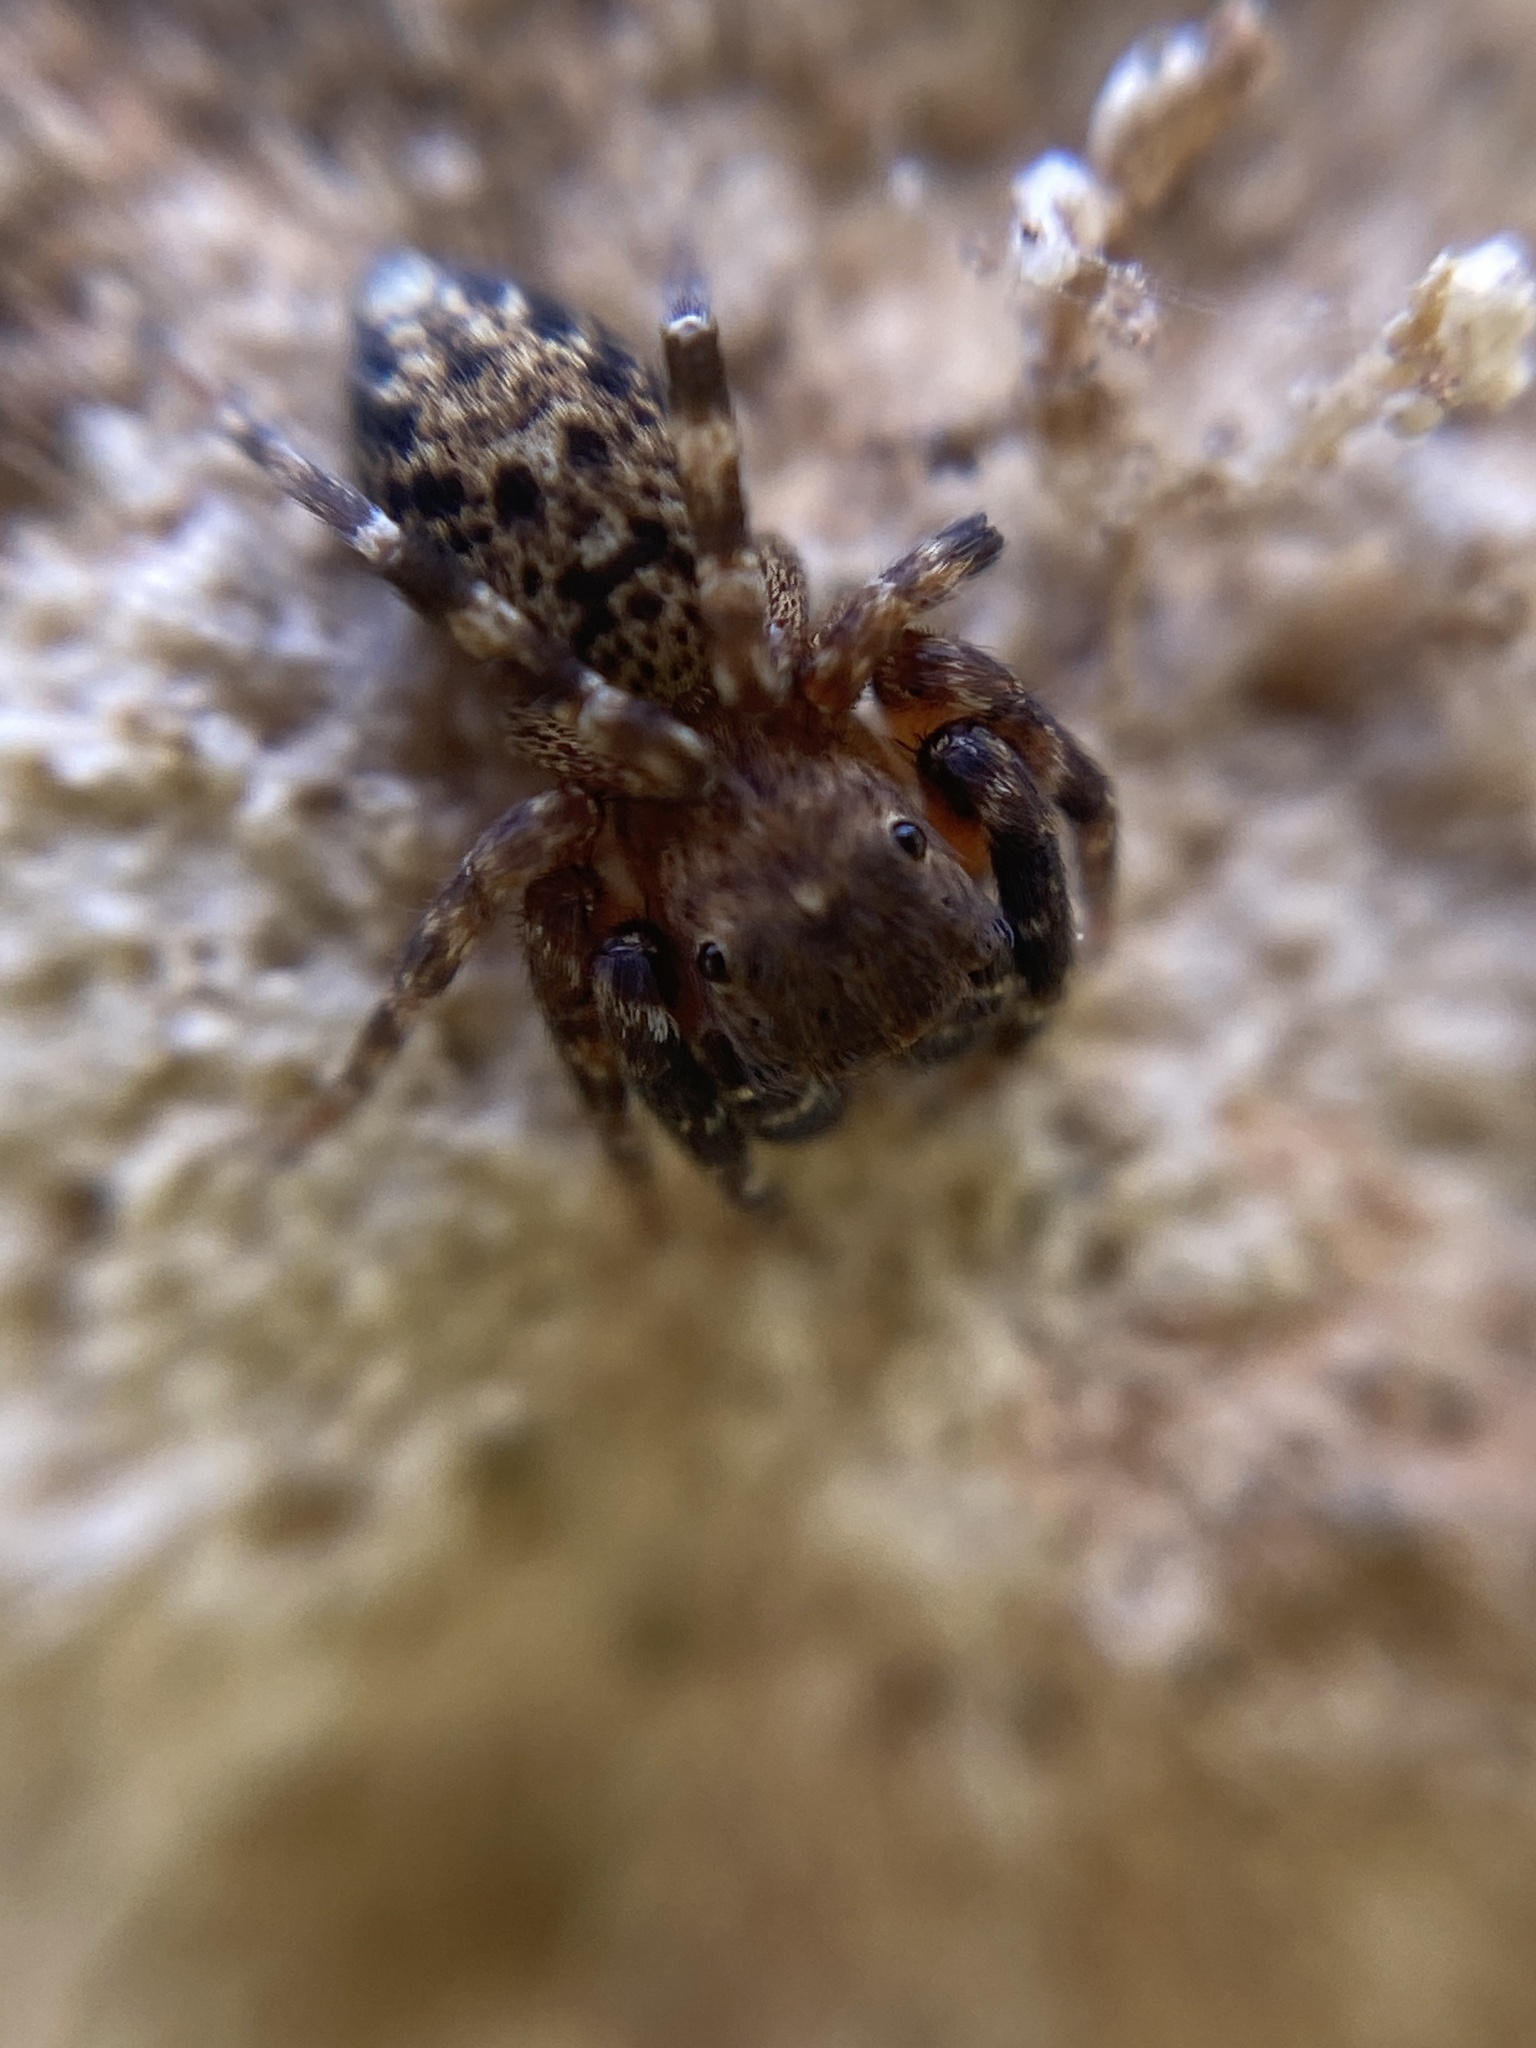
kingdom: Animalia
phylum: Arthropoda
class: Arachnida
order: Araneae
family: Salticidae
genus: Cyrba
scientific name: Cyrba algerina
